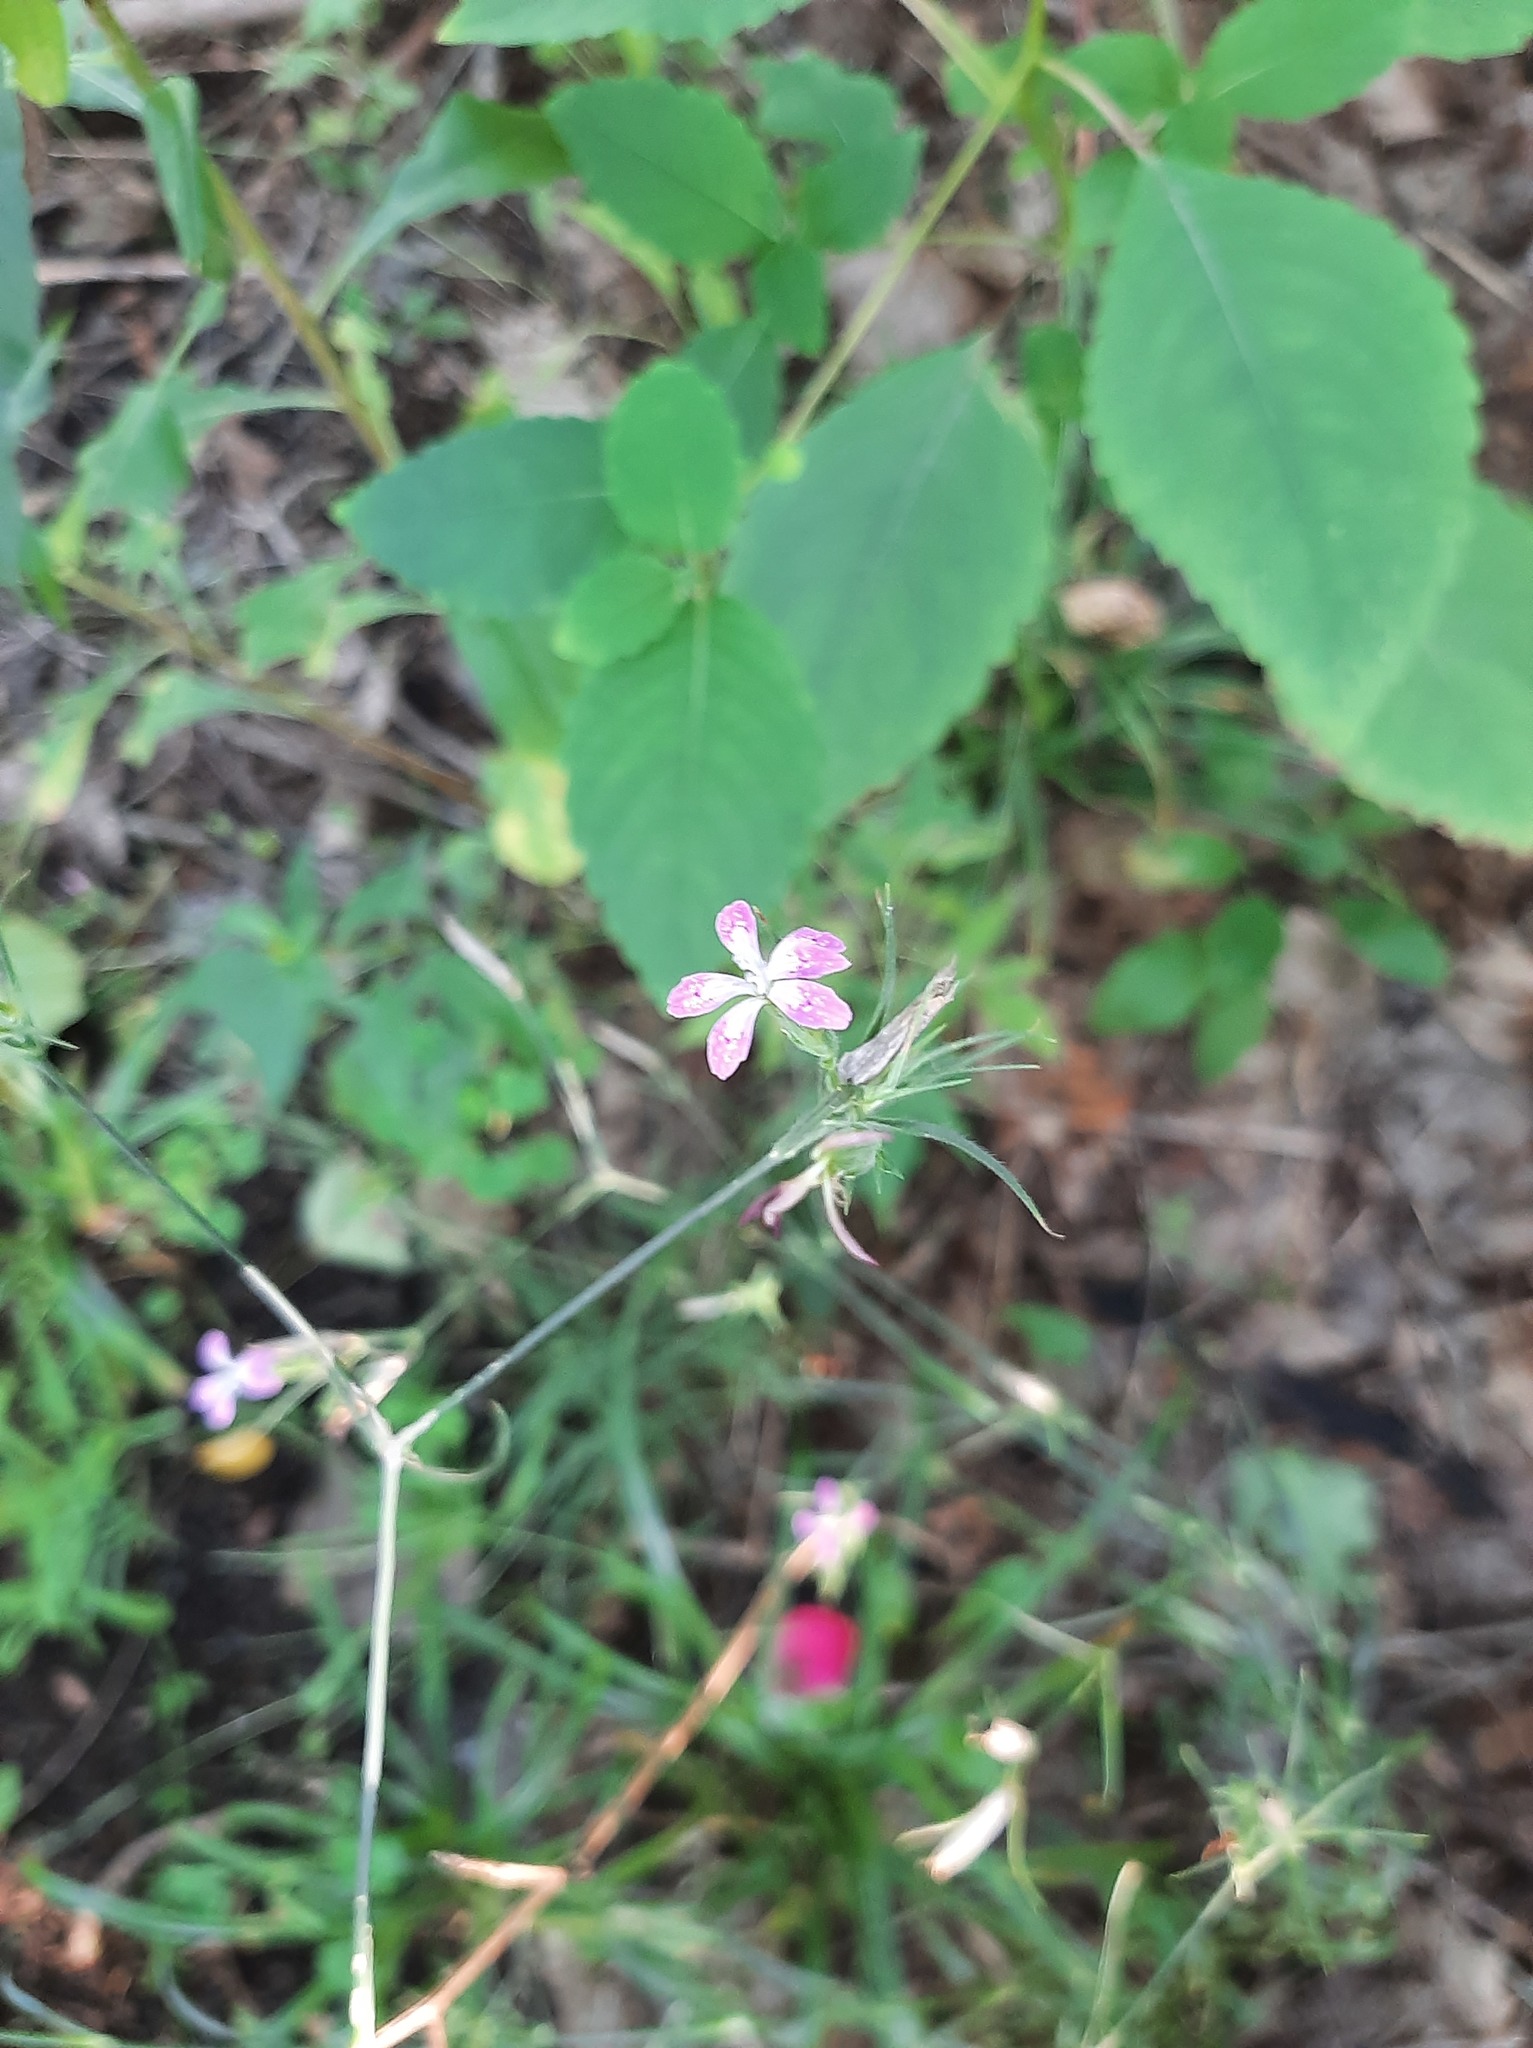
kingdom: Plantae
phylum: Tracheophyta
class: Magnoliopsida
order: Caryophyllales
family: Caryophyllaceae
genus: Dianthus
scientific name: Dianthus armeria
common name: Deptford pink
